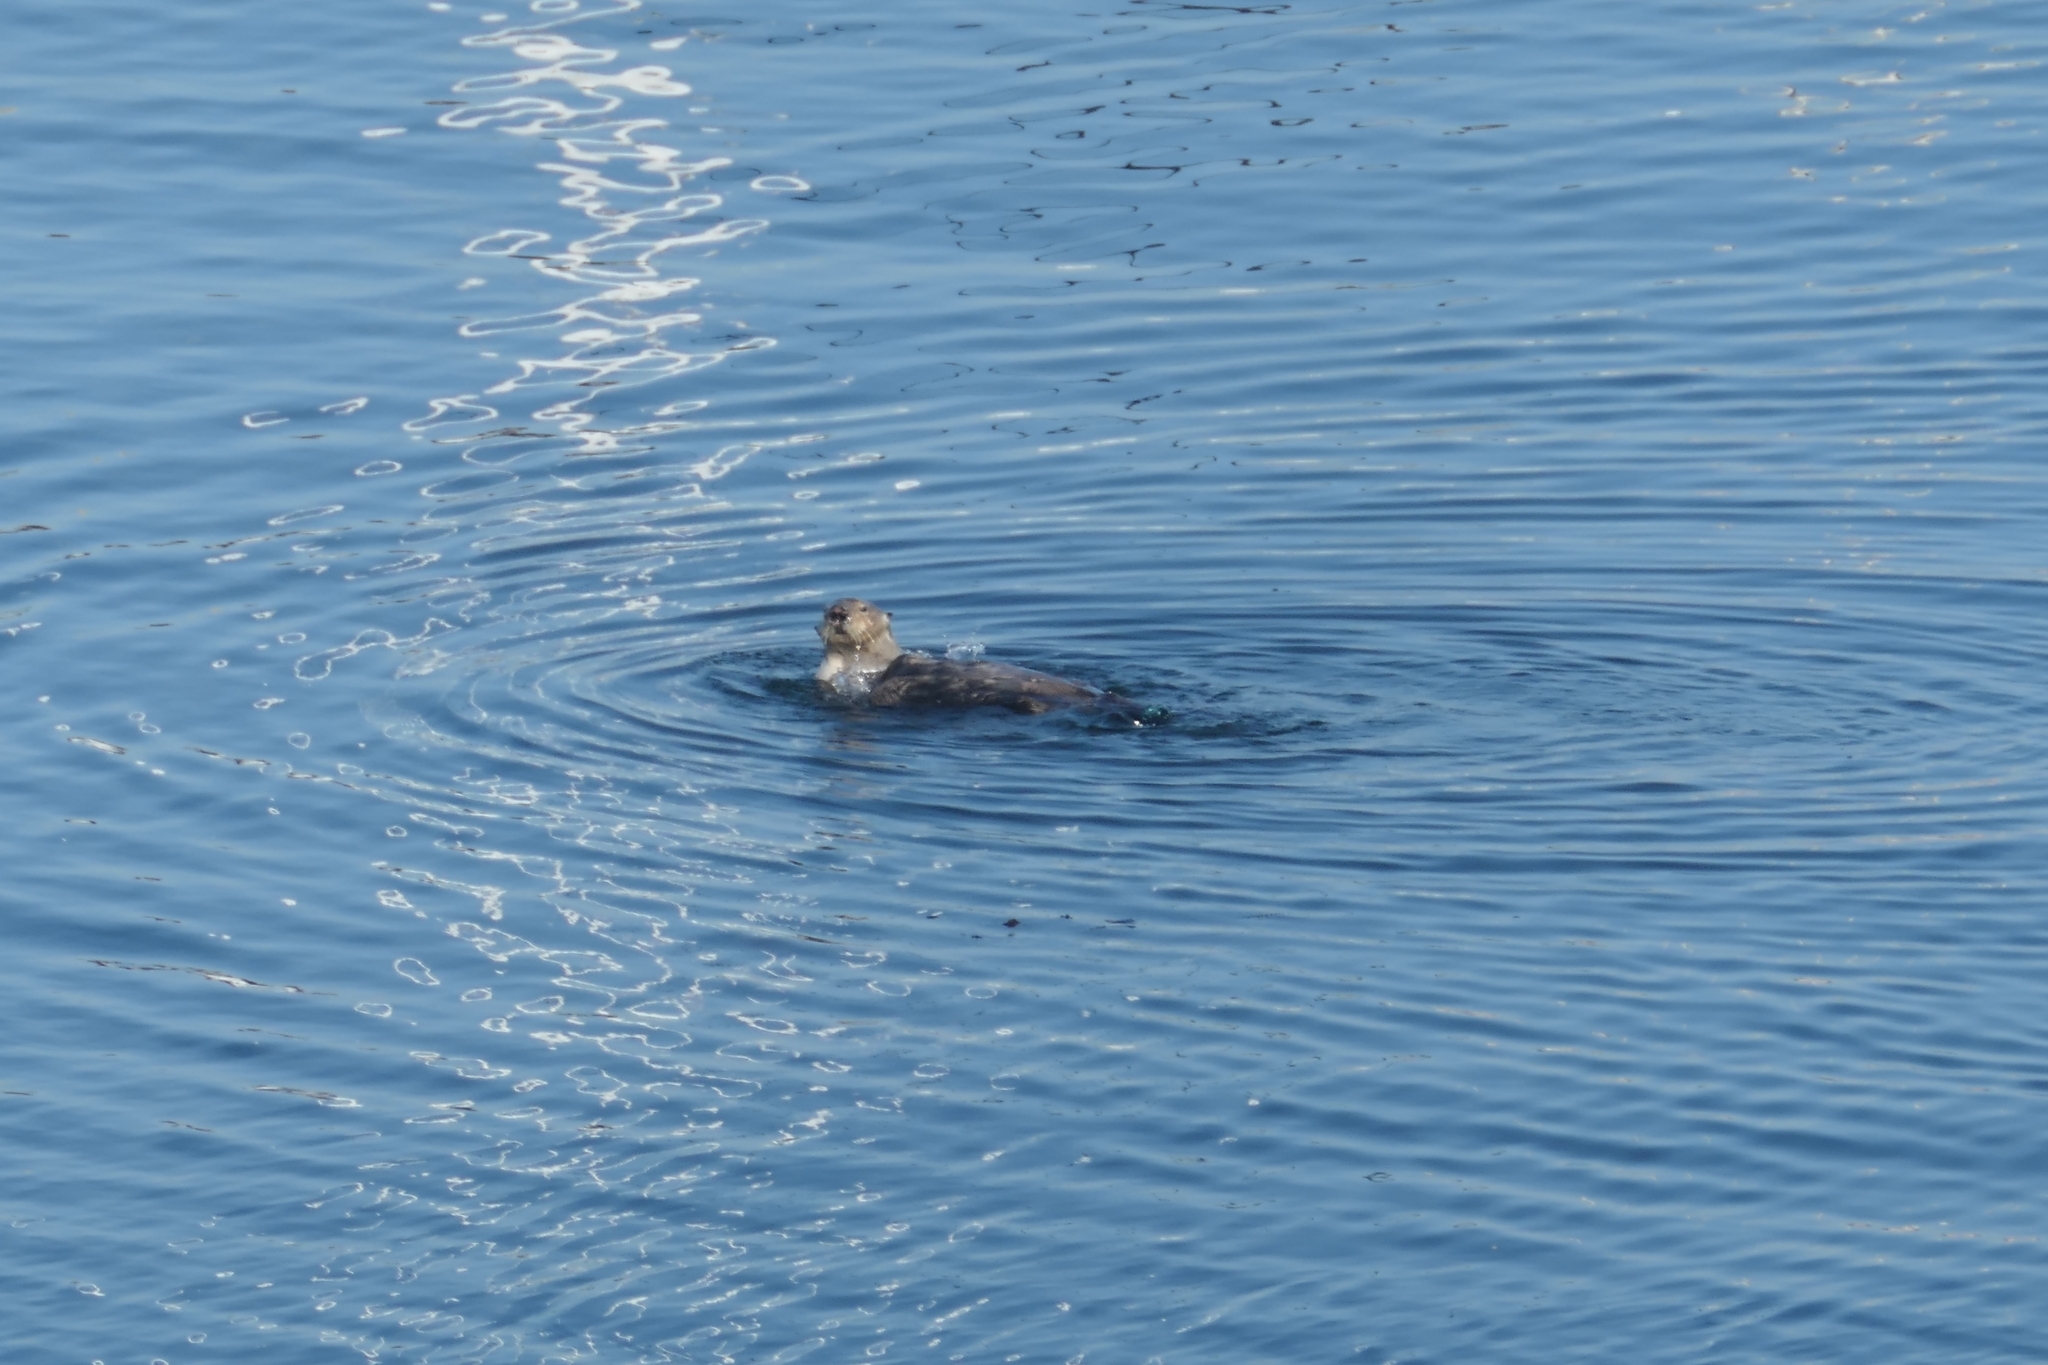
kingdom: Animalia
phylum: Chordata
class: Mammalia
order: Carnivora
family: Mustelidae
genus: Enhydra
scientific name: Enhydra lutris
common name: Sea otter
